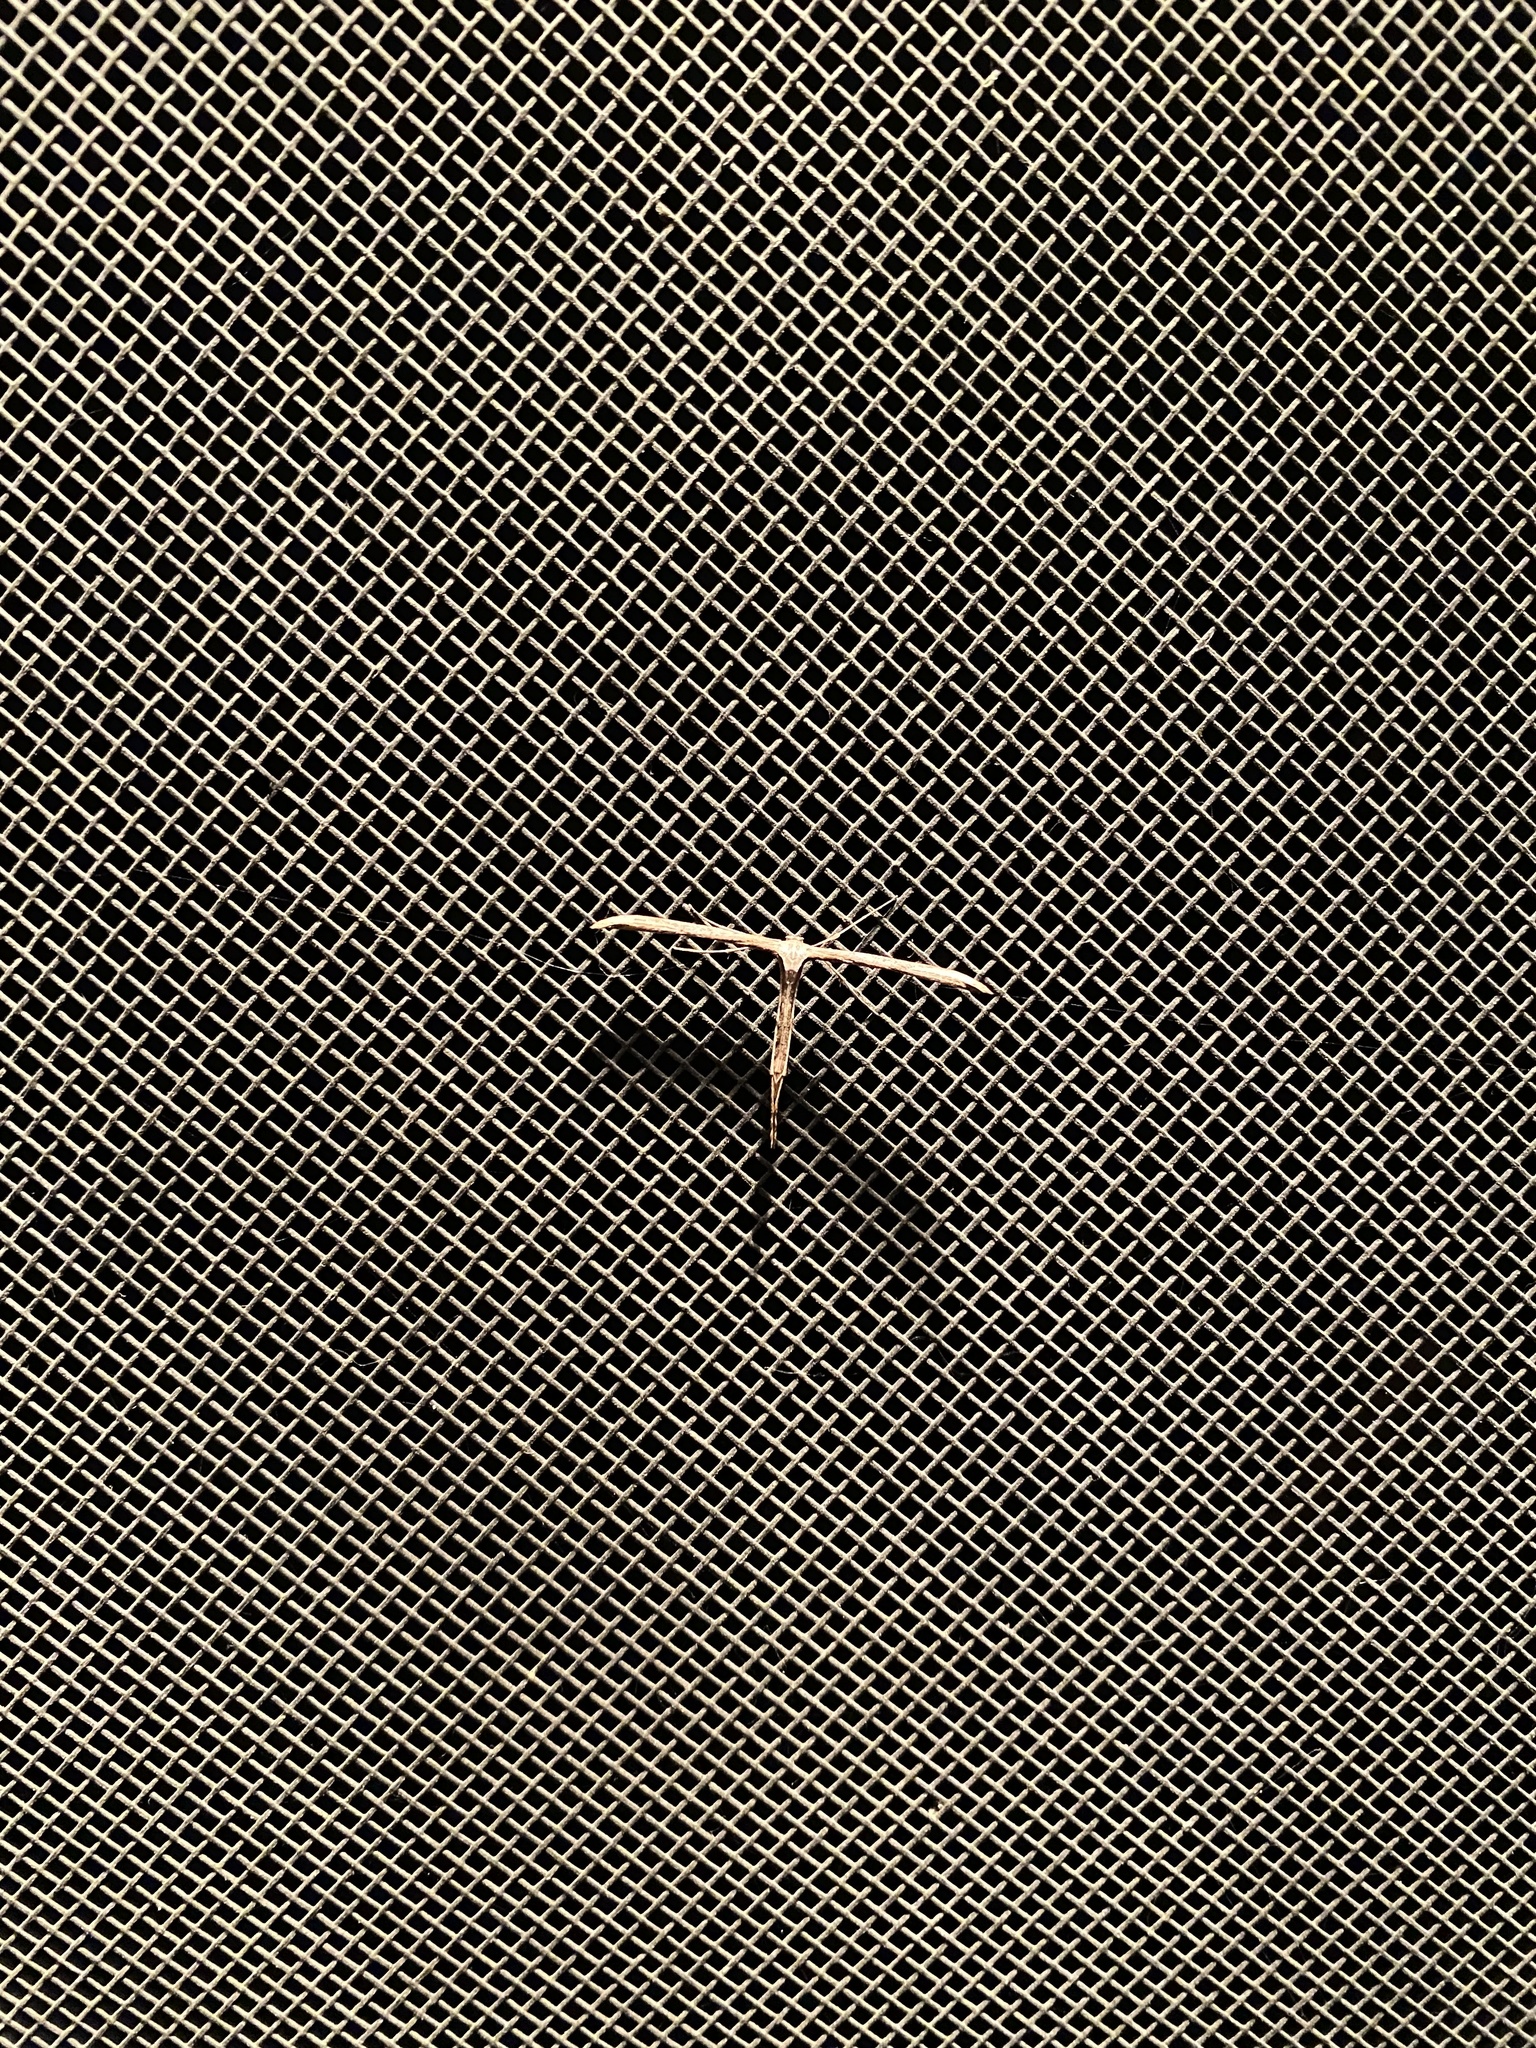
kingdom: Animalia
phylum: Arthropoda
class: Insecta
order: Lepidoptera
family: Pterophoridae
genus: Emmelina
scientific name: Emmelina monodactyla
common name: Common plume
